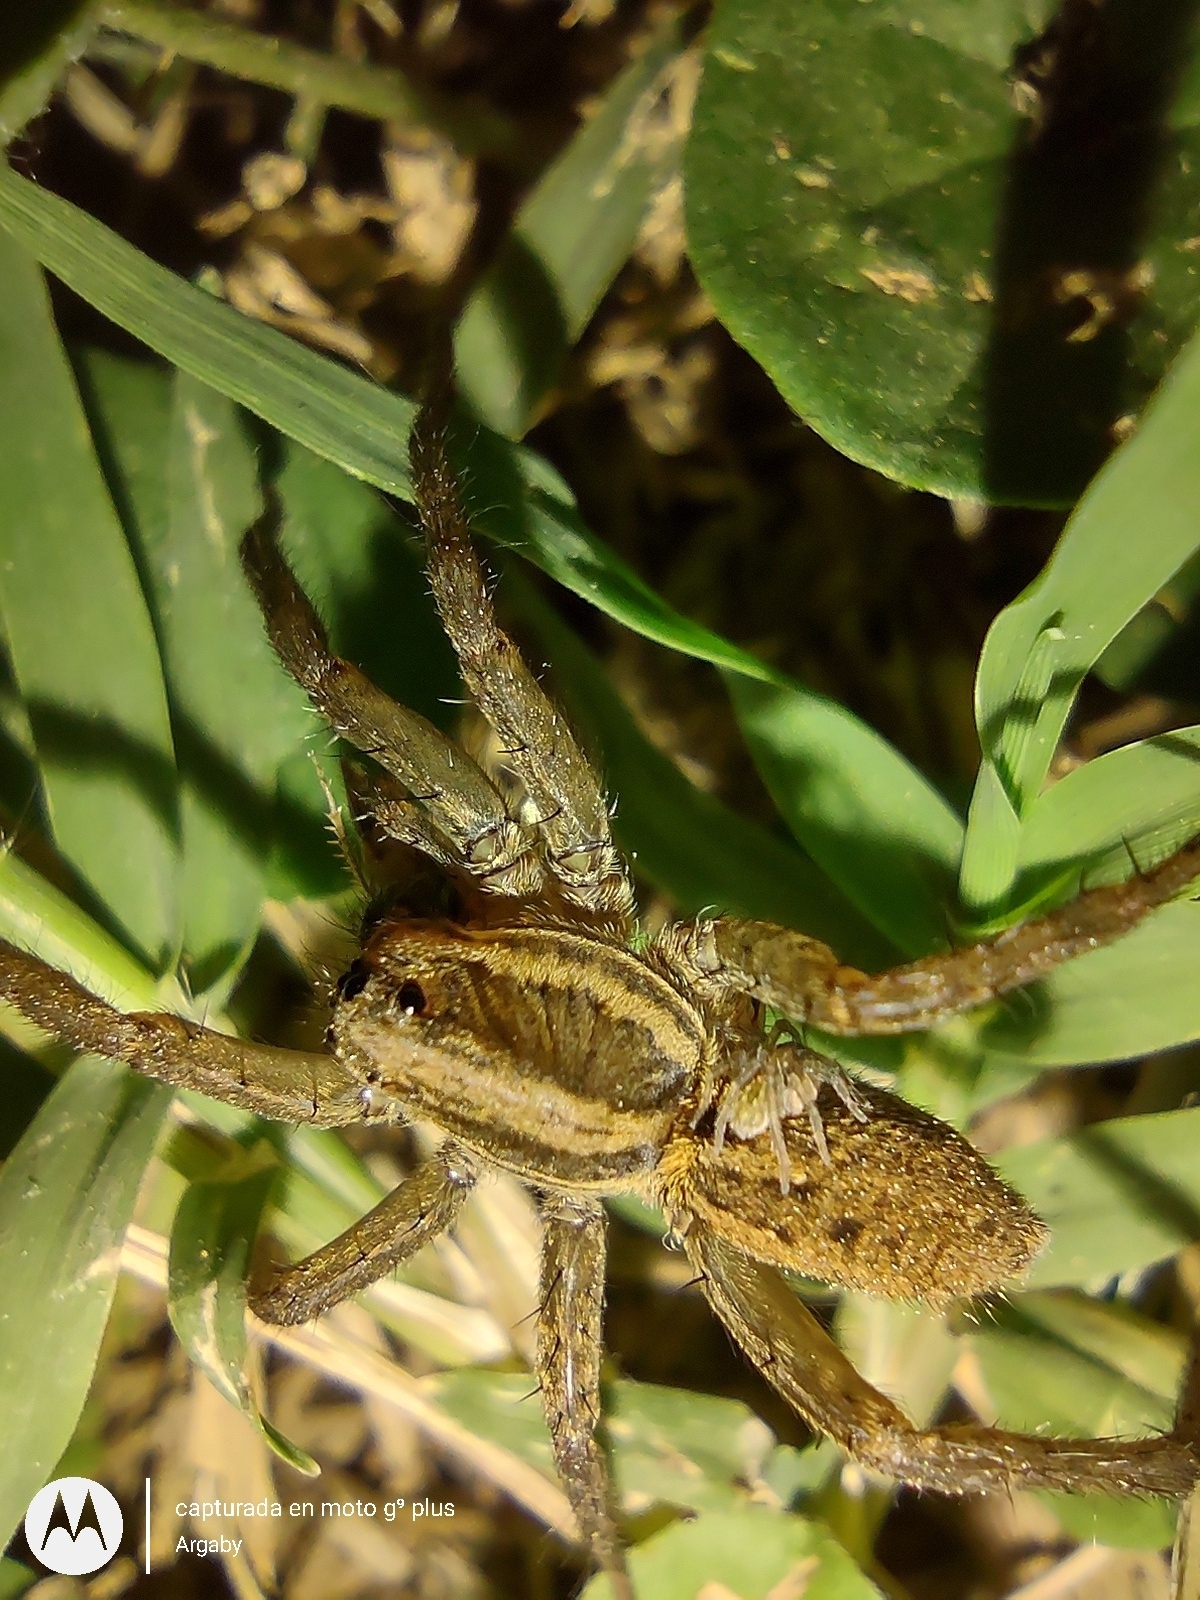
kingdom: Animalia
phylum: Arthropoda
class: Arachnida
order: Araneae
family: Lycosidae
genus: Alopecosa
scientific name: Alopecosa moesta
